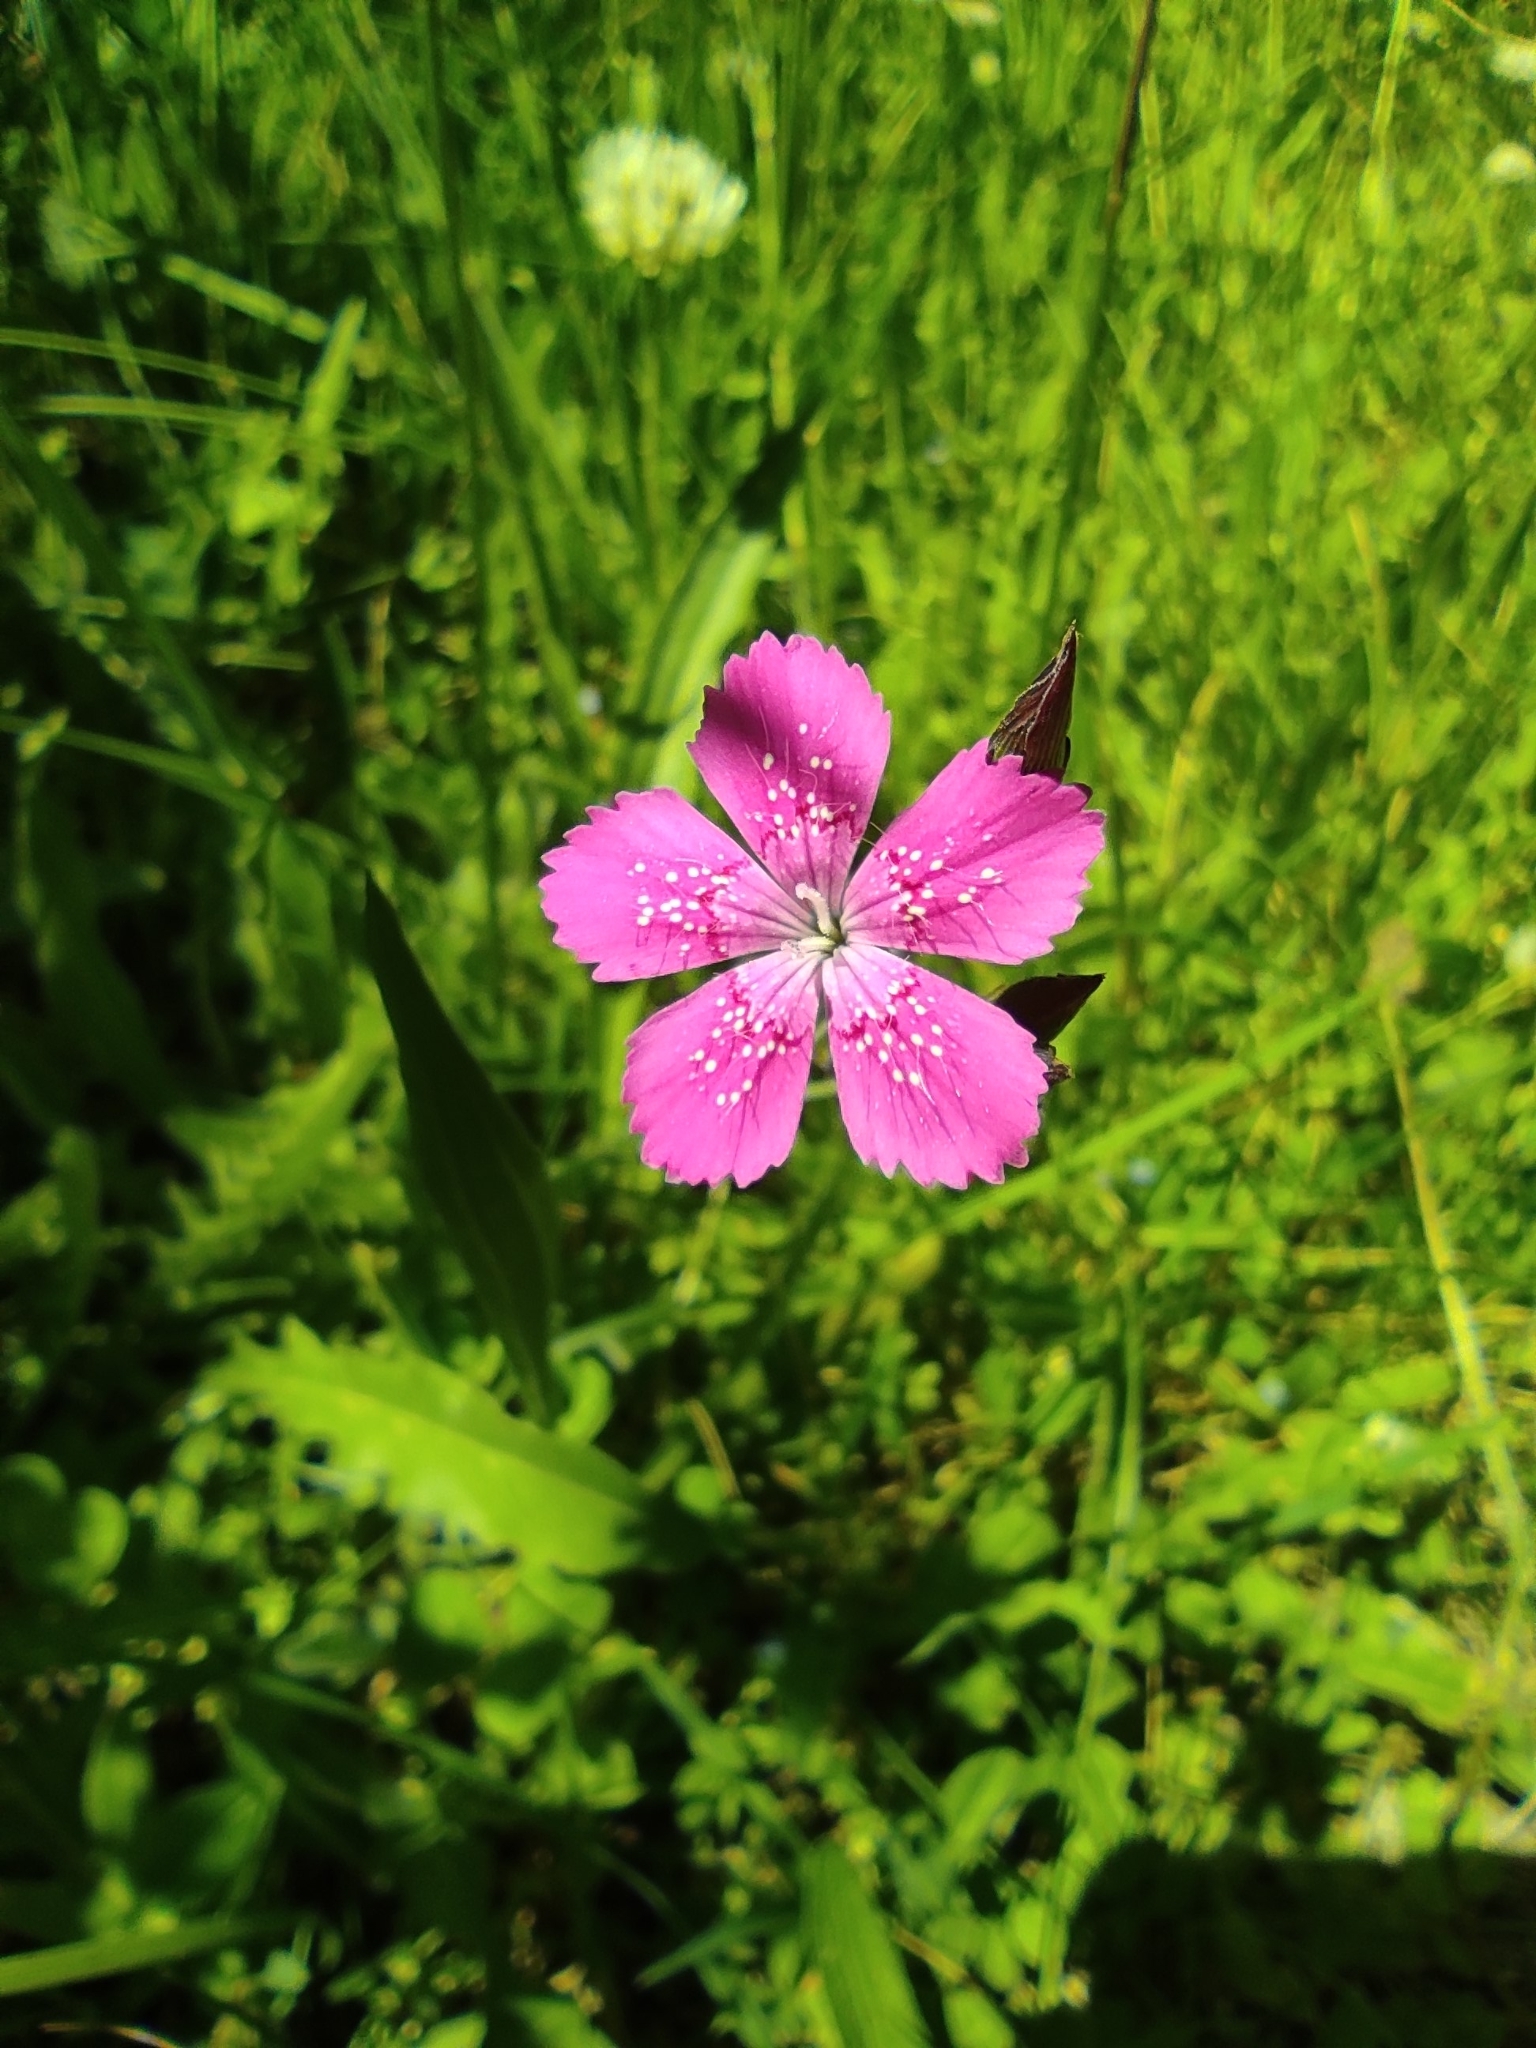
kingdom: Plantae
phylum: Tracheophyta
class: Magnoliopsida
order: Caryophyllales
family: Caryophyllaceae
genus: Dianthus
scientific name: Dianthus deltoides
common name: Maiden pink
